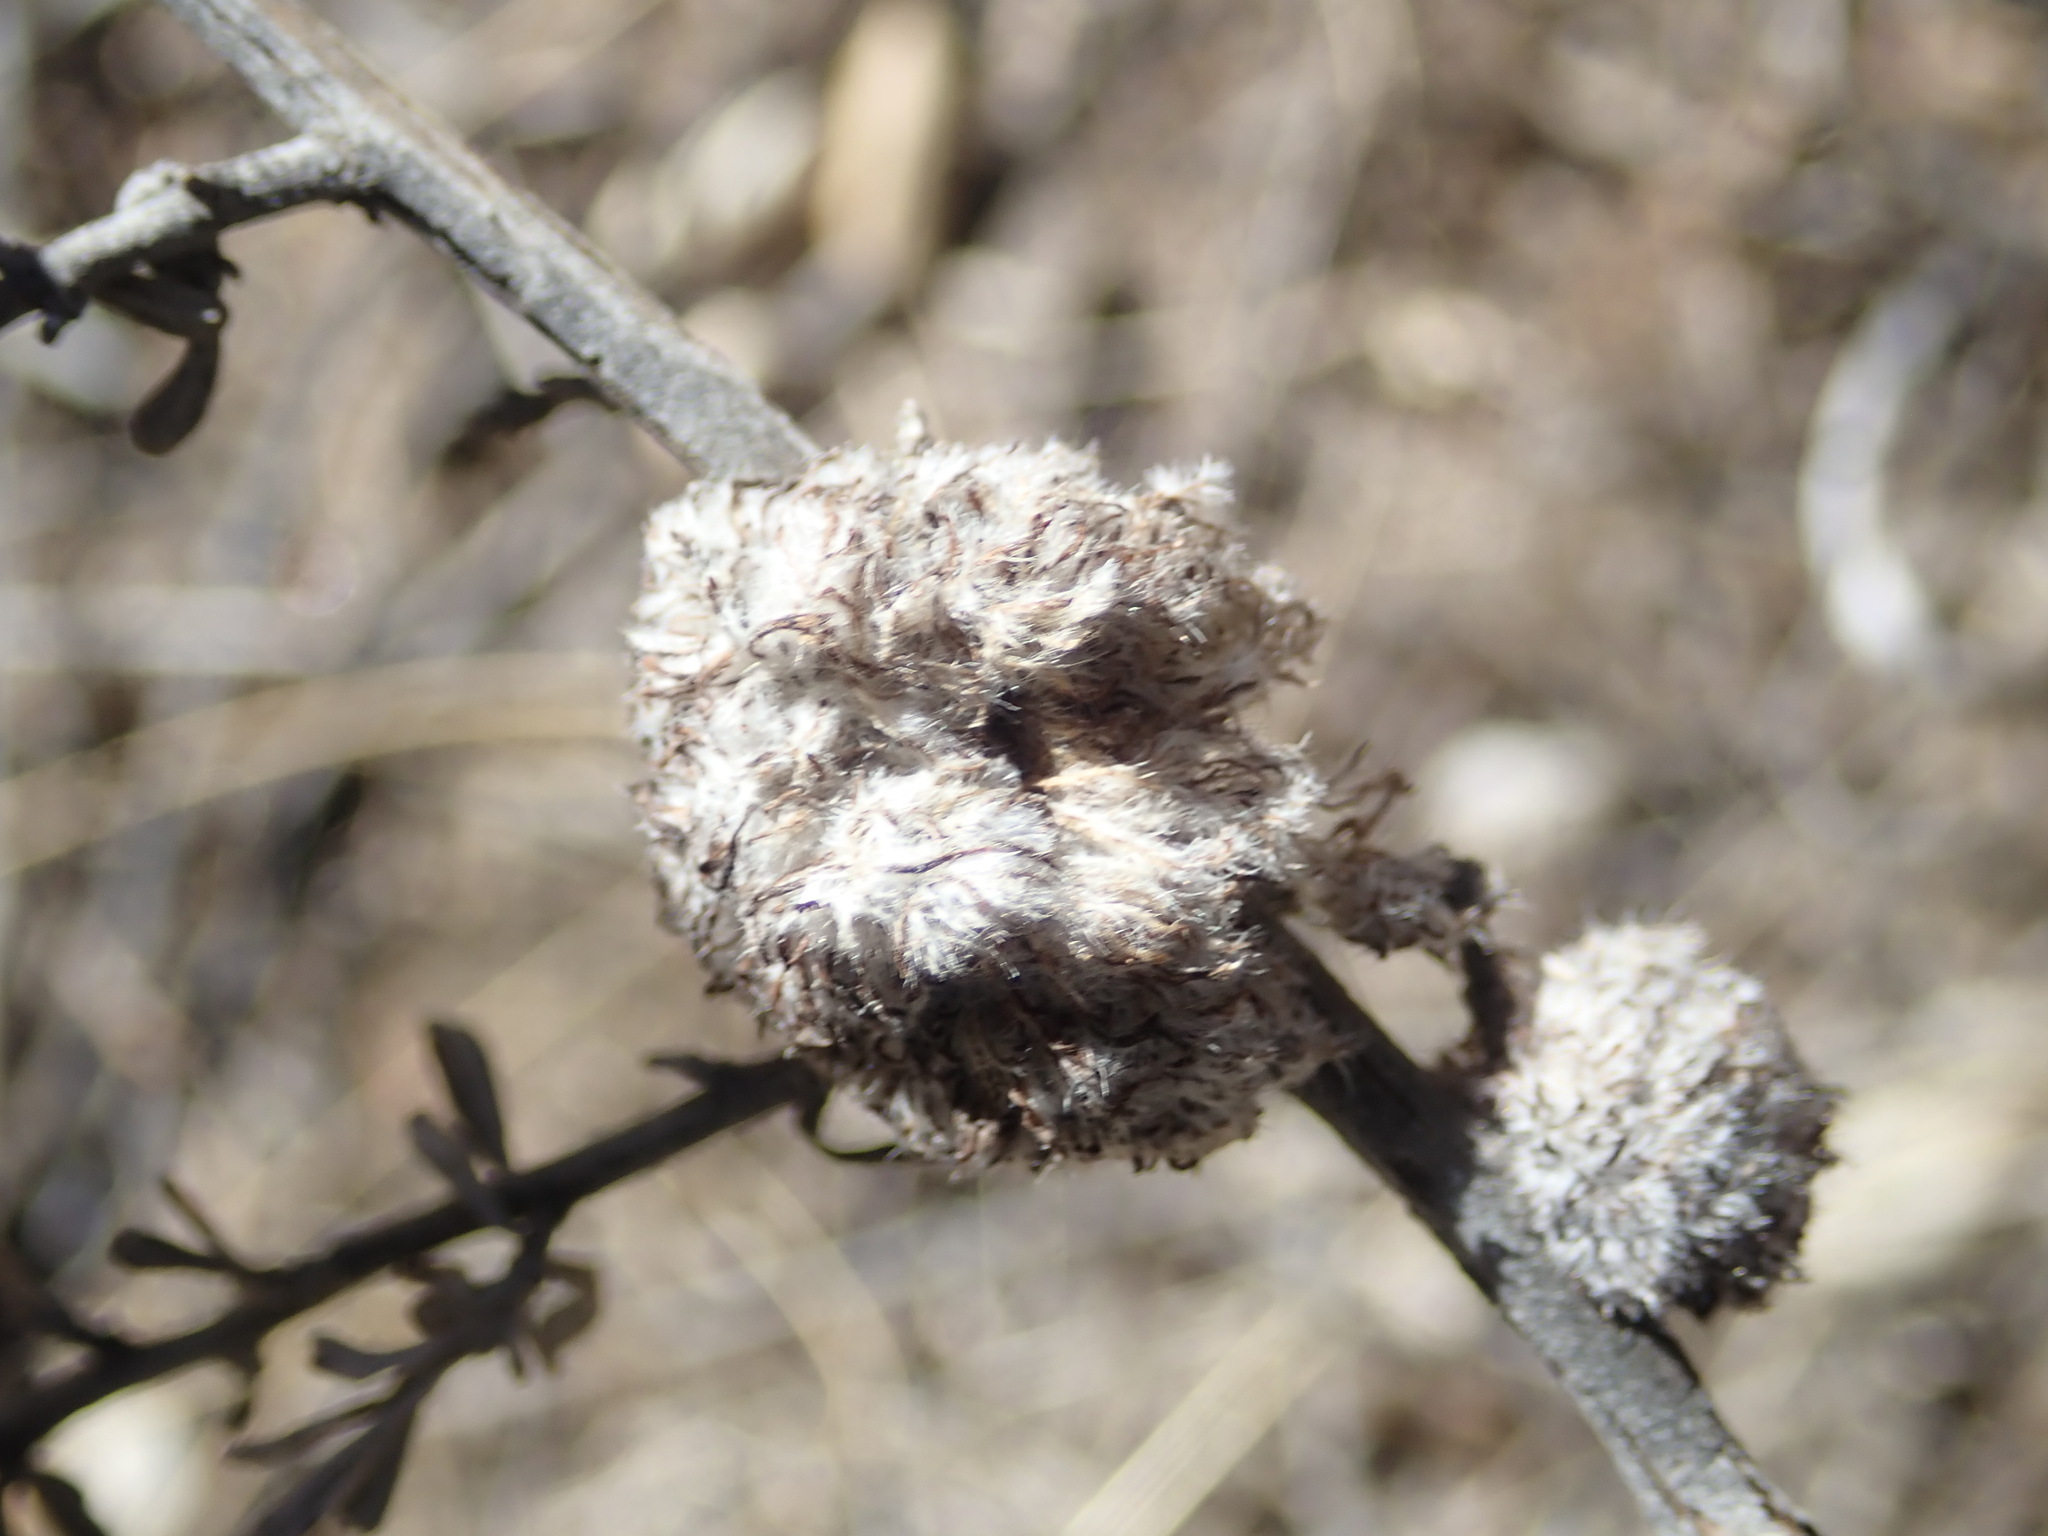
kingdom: Animalia
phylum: Arthropoda
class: Insecta
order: Diptera
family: Cecidomyiidae
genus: Rhopalomyia
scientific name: Rhopalomyia medusirrasa
